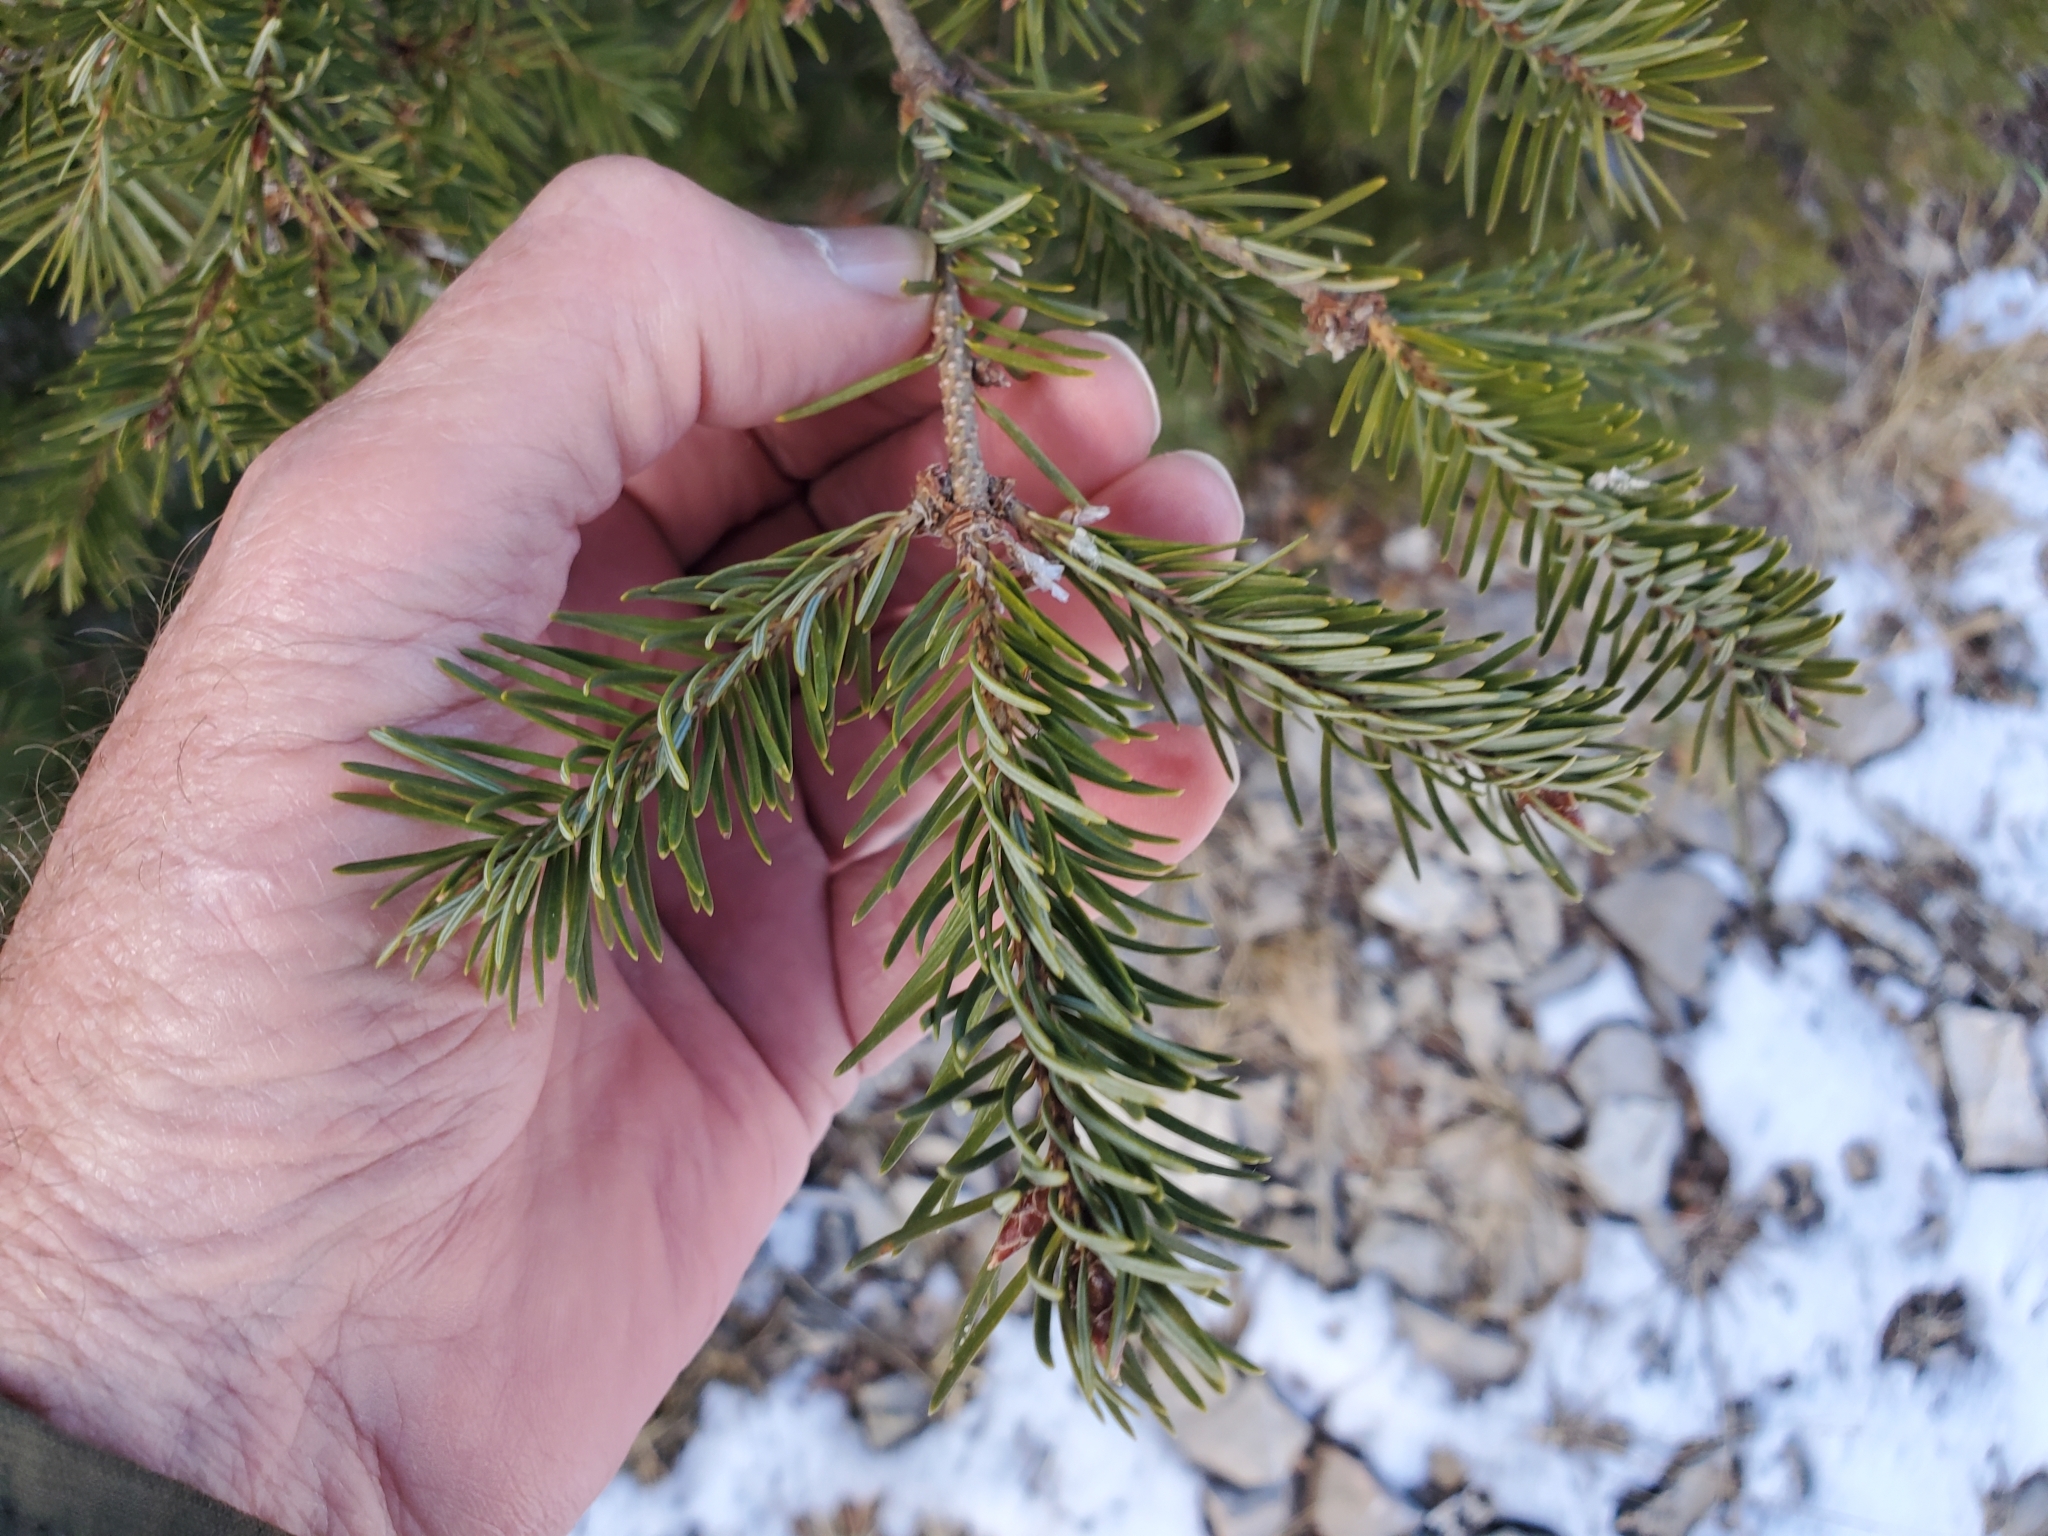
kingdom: Plantae
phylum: Tracheophyta
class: Pinopsida
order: Pinales
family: Pinaceae
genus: Pseudotsuga
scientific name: Pseudotsuga menziesii
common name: Douglas fir
